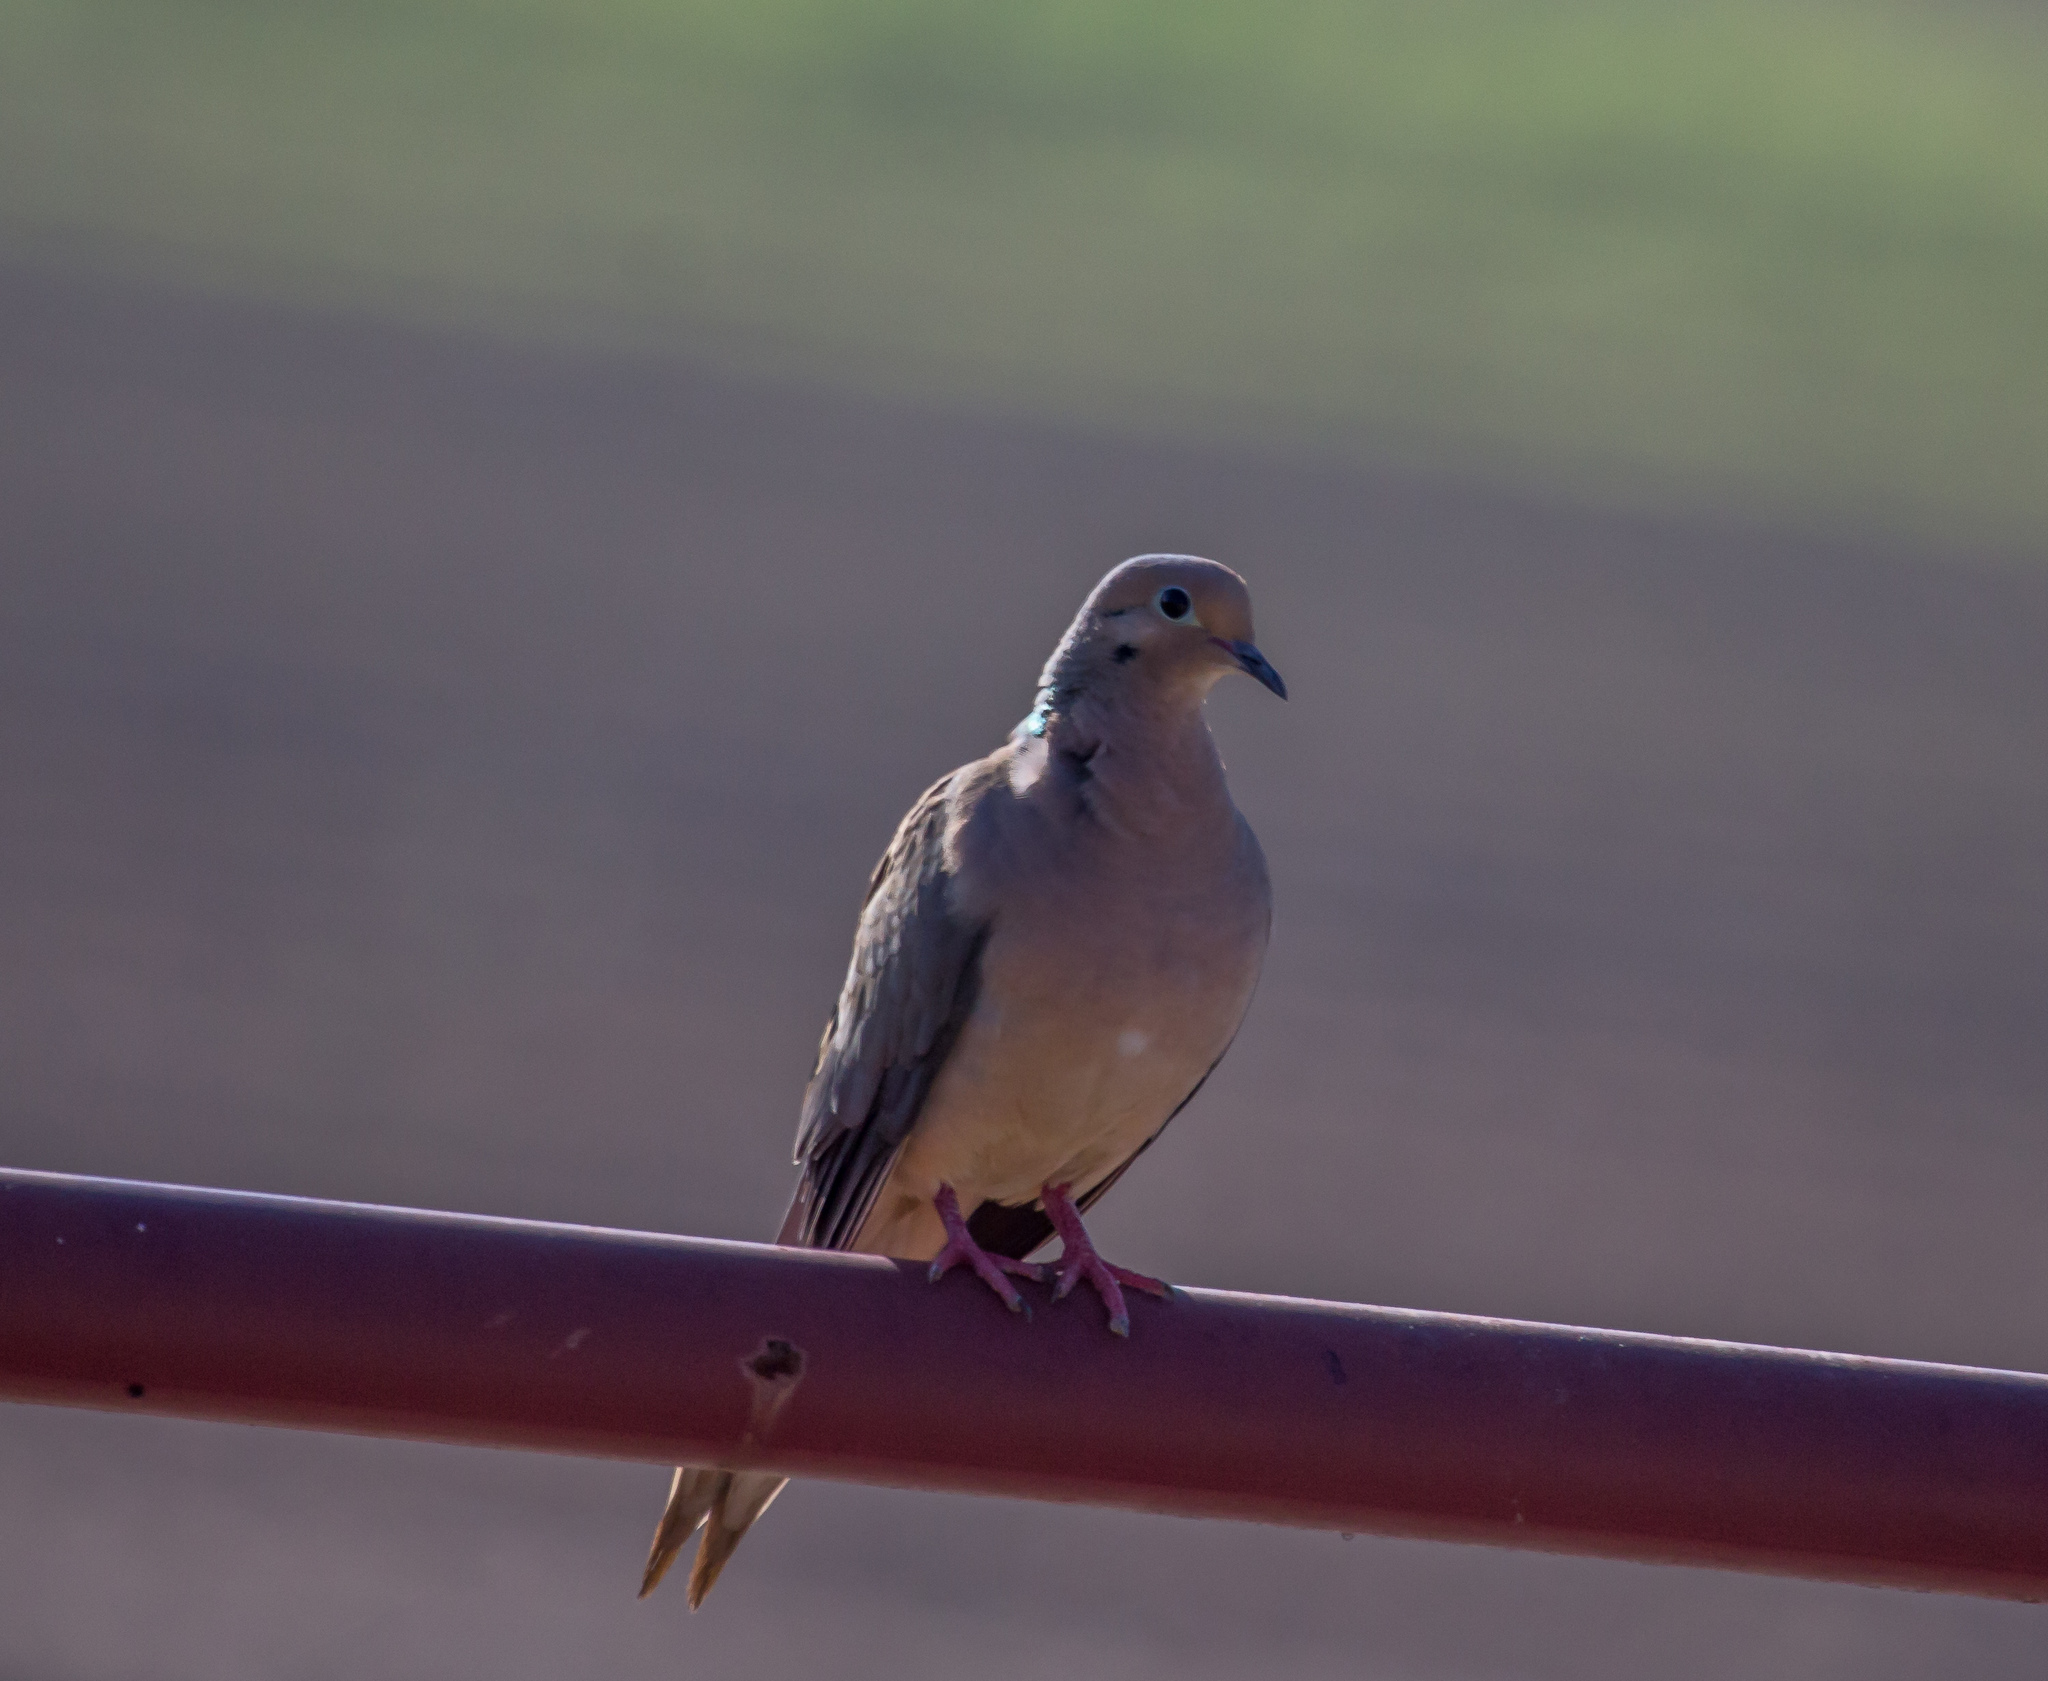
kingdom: Animalia
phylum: Chordata
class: Aves
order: Columbiformes
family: Columbidae
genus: Zenaida
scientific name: Zenaida macroura
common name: Mourning dove
